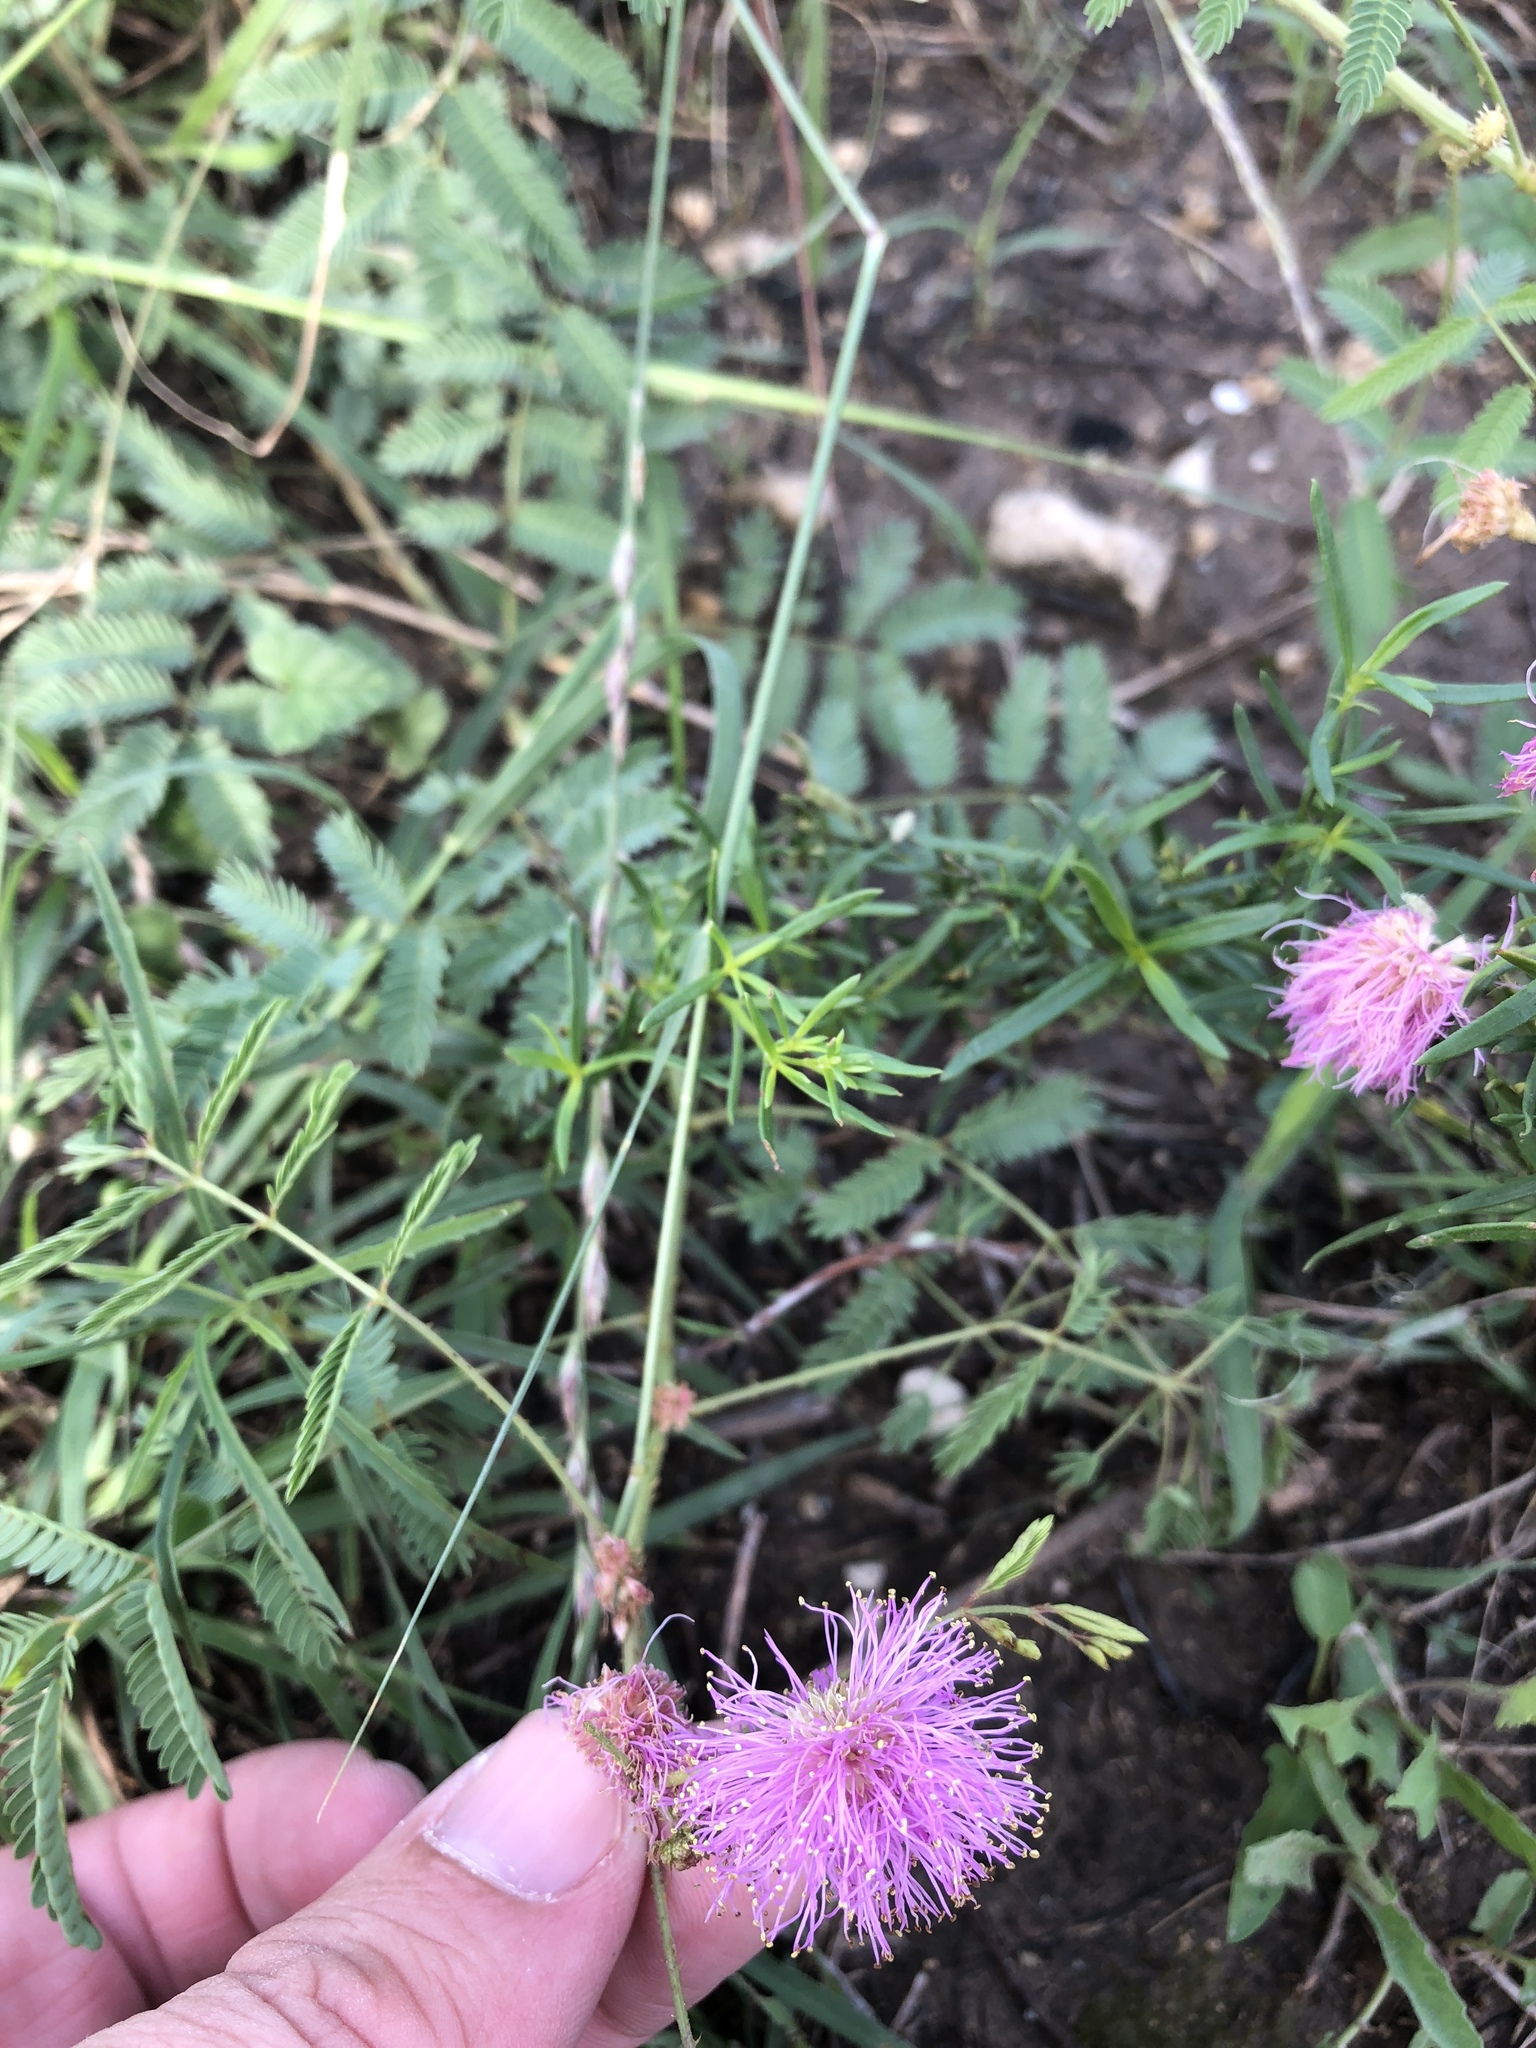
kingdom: Plantae
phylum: Tracheophyta
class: Magnoliopsida
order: Fabales
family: Fabaceae
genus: Mimosa
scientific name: Mimosa quadrivalvis
